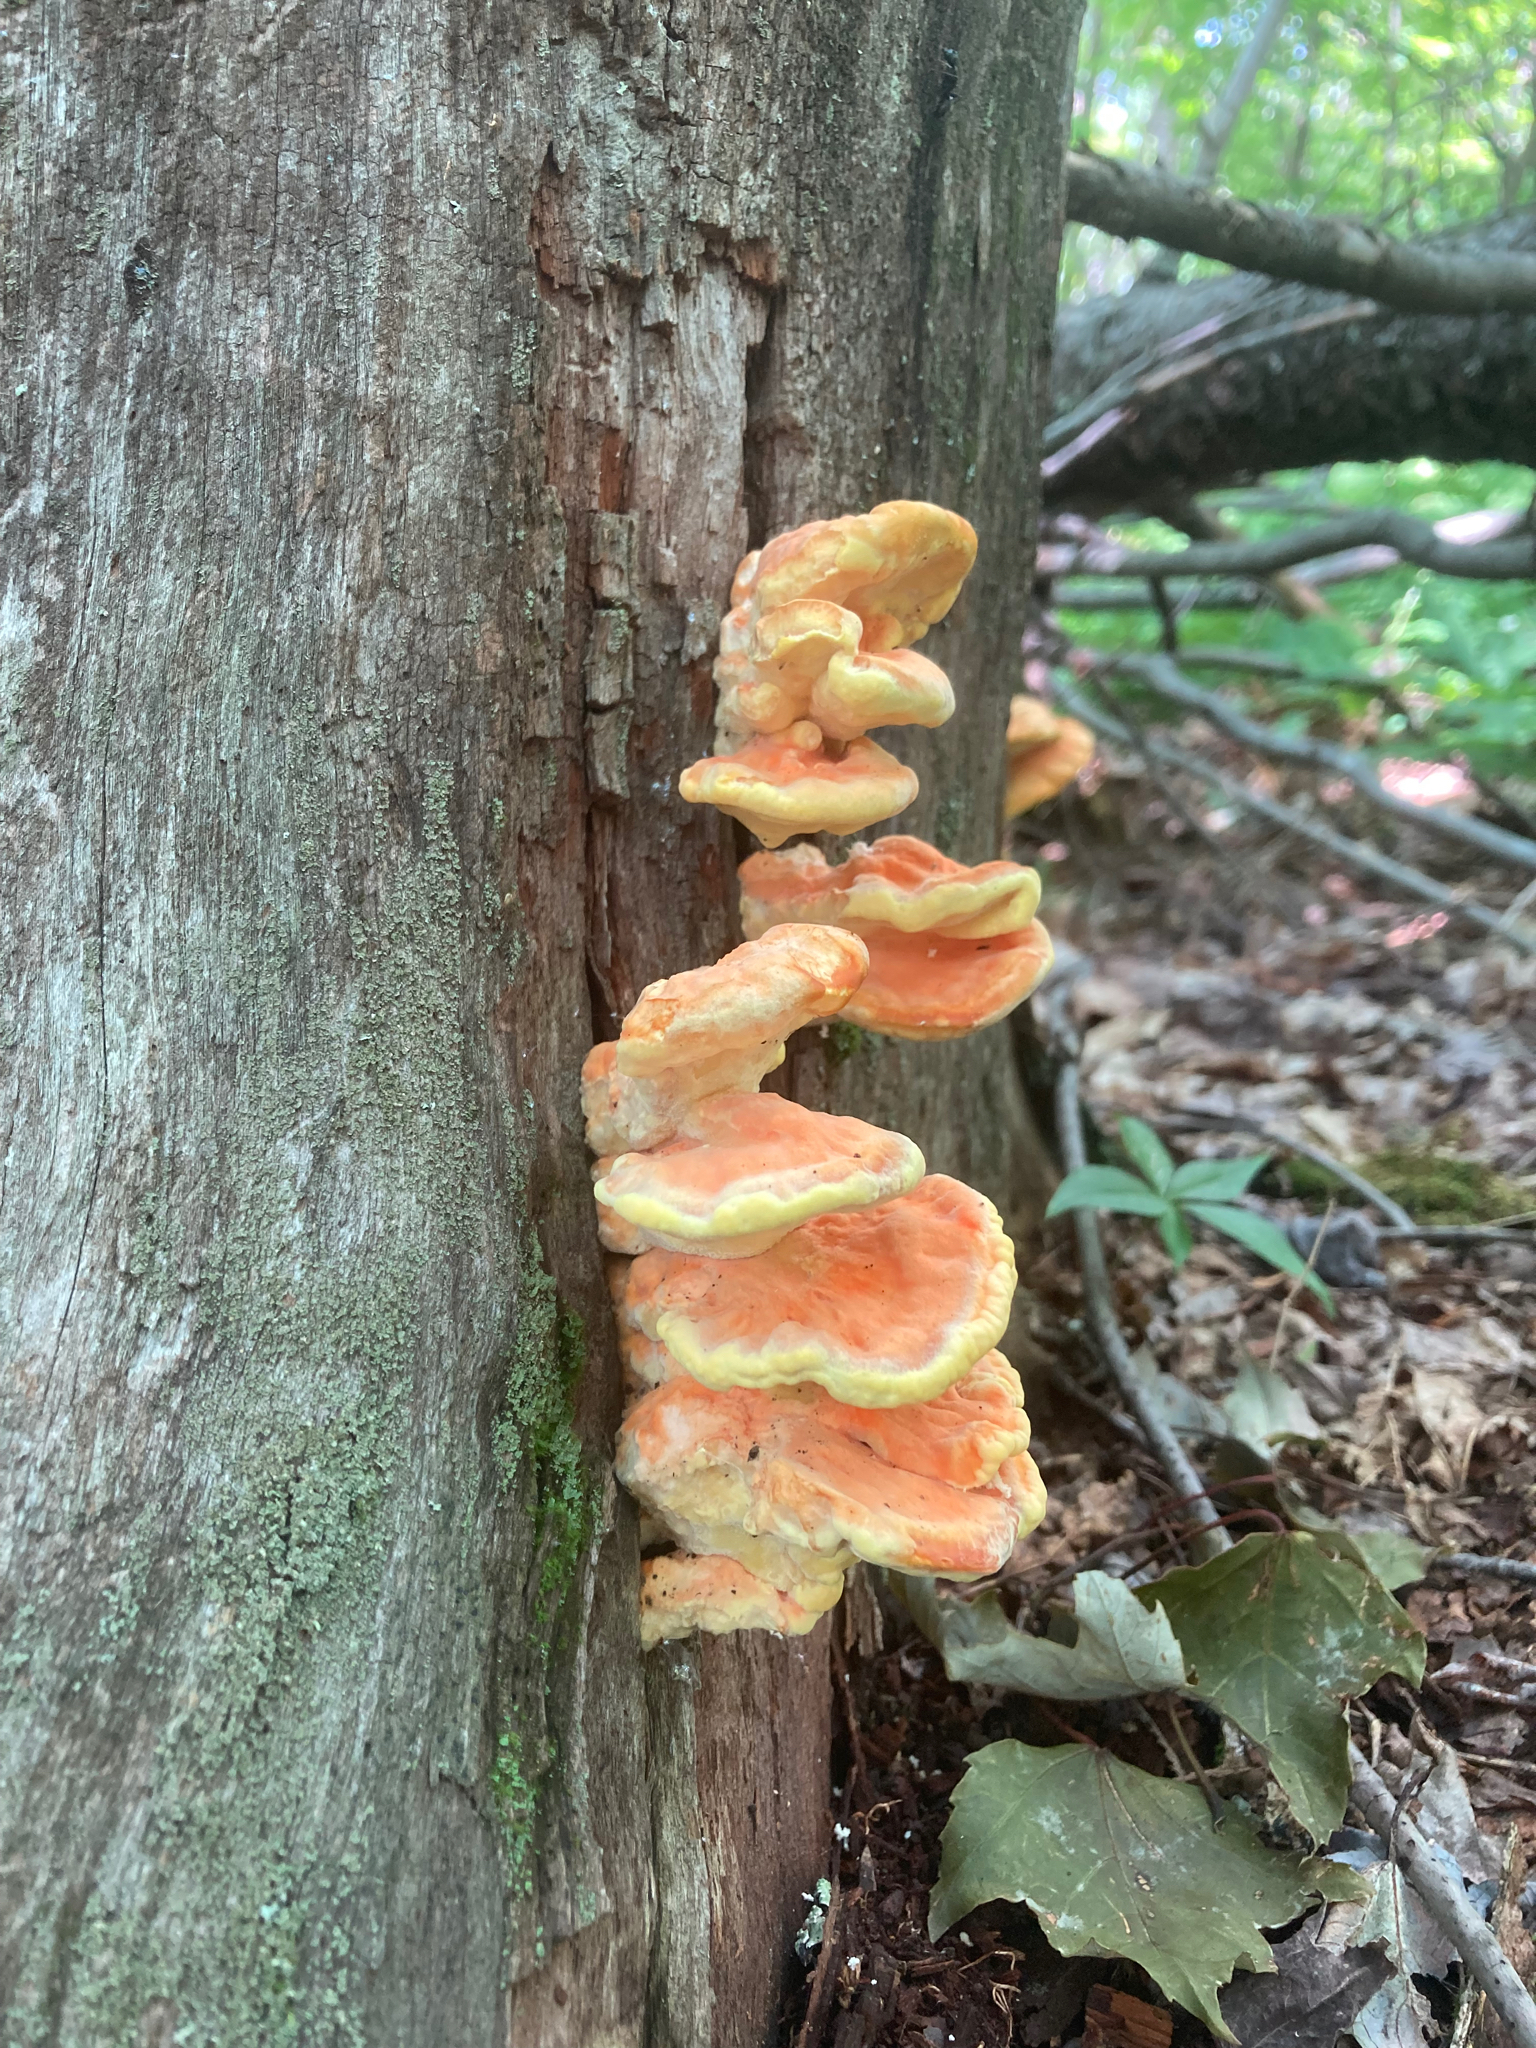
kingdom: Fungi
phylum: Basidiomycota
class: Agaricomycetes
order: Polyporales
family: Laetiporaceae
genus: Laetiporus
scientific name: Laetiporus sulphureus
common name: Chicken of the woods
